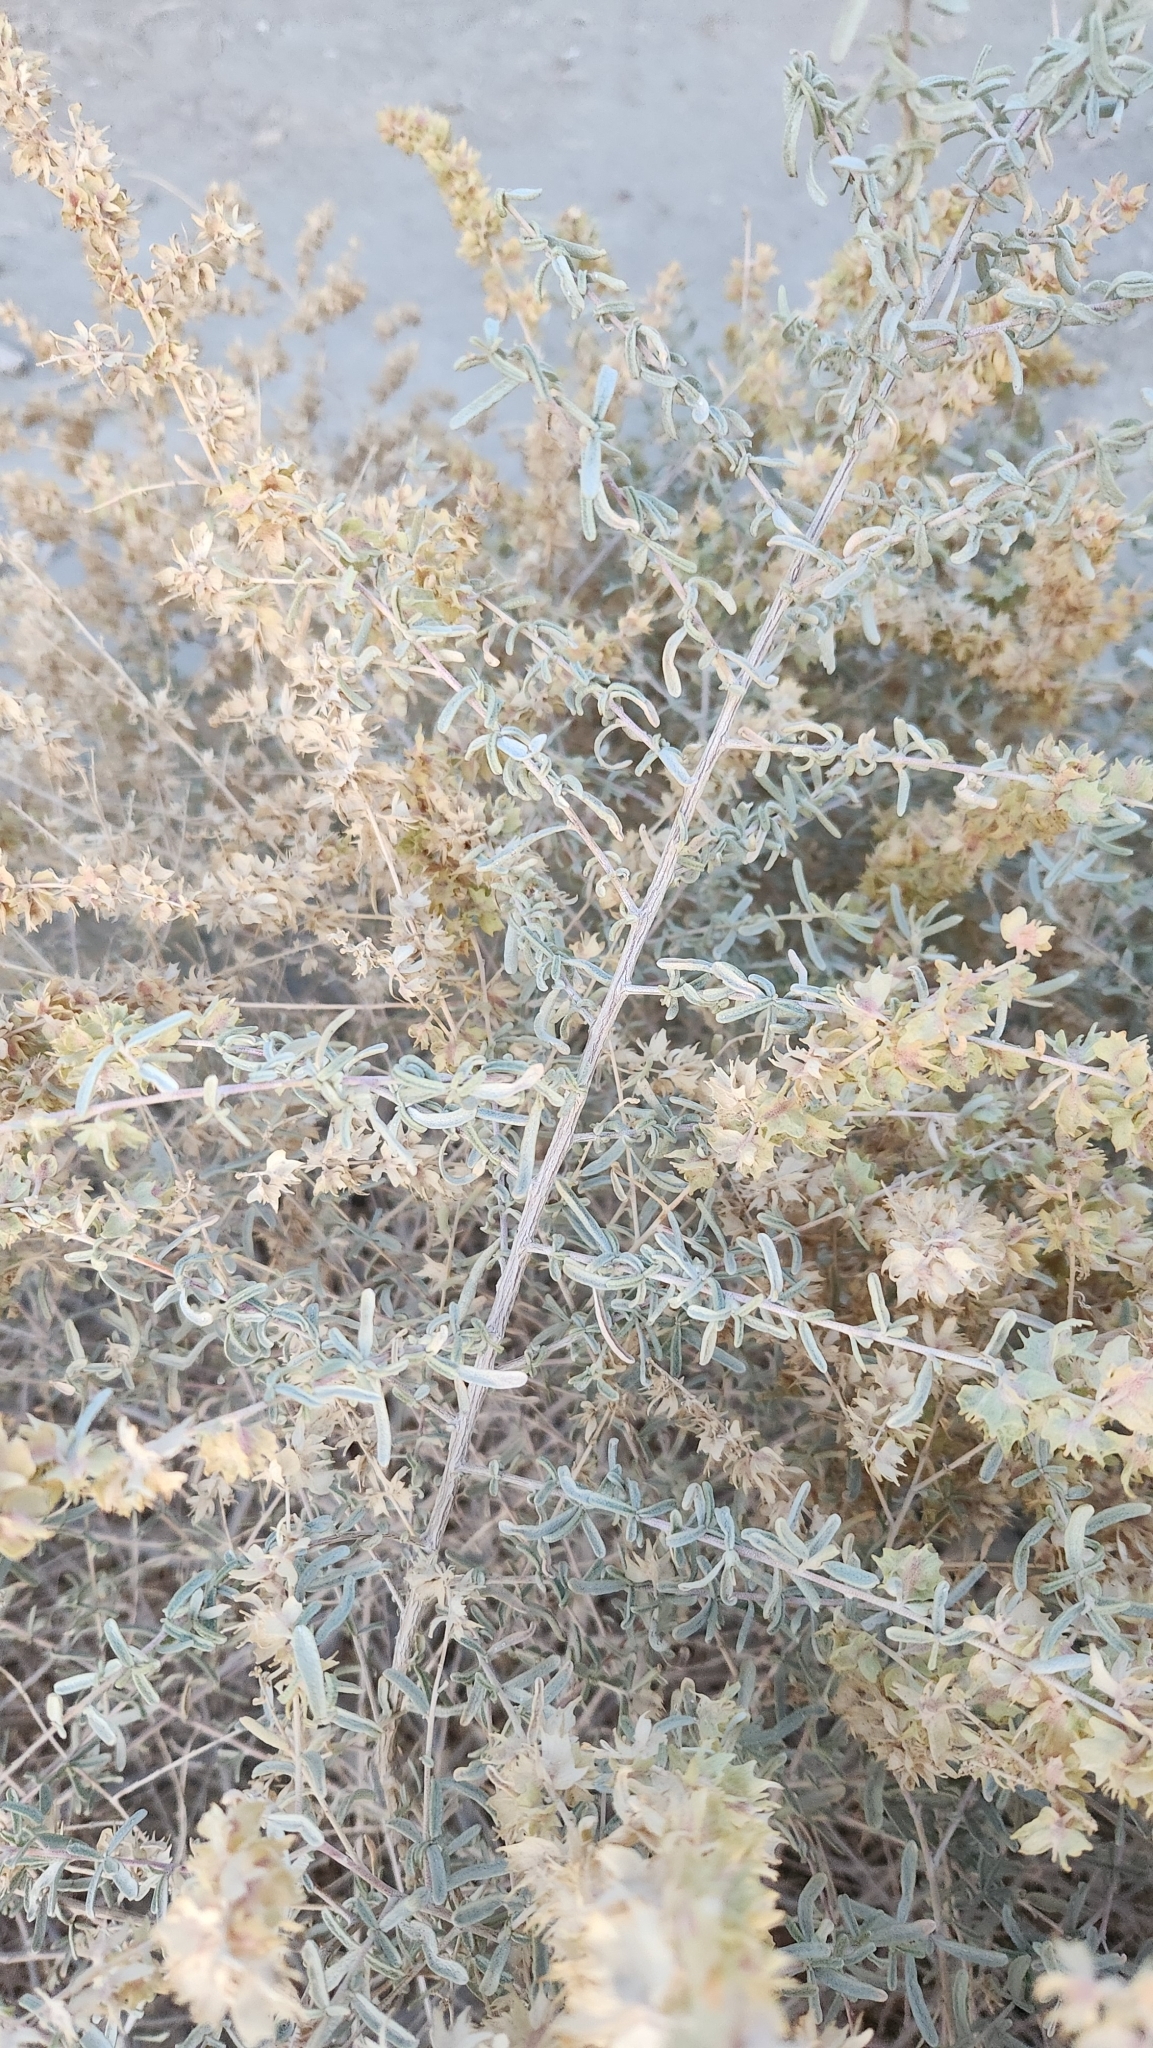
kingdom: Plantae
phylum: Tracheophyta
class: Magnoliopsida
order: Caryophyllales
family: Amaranthaceae
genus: Atriplex
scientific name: Atriplex canescens
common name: Four-wing saltbush
